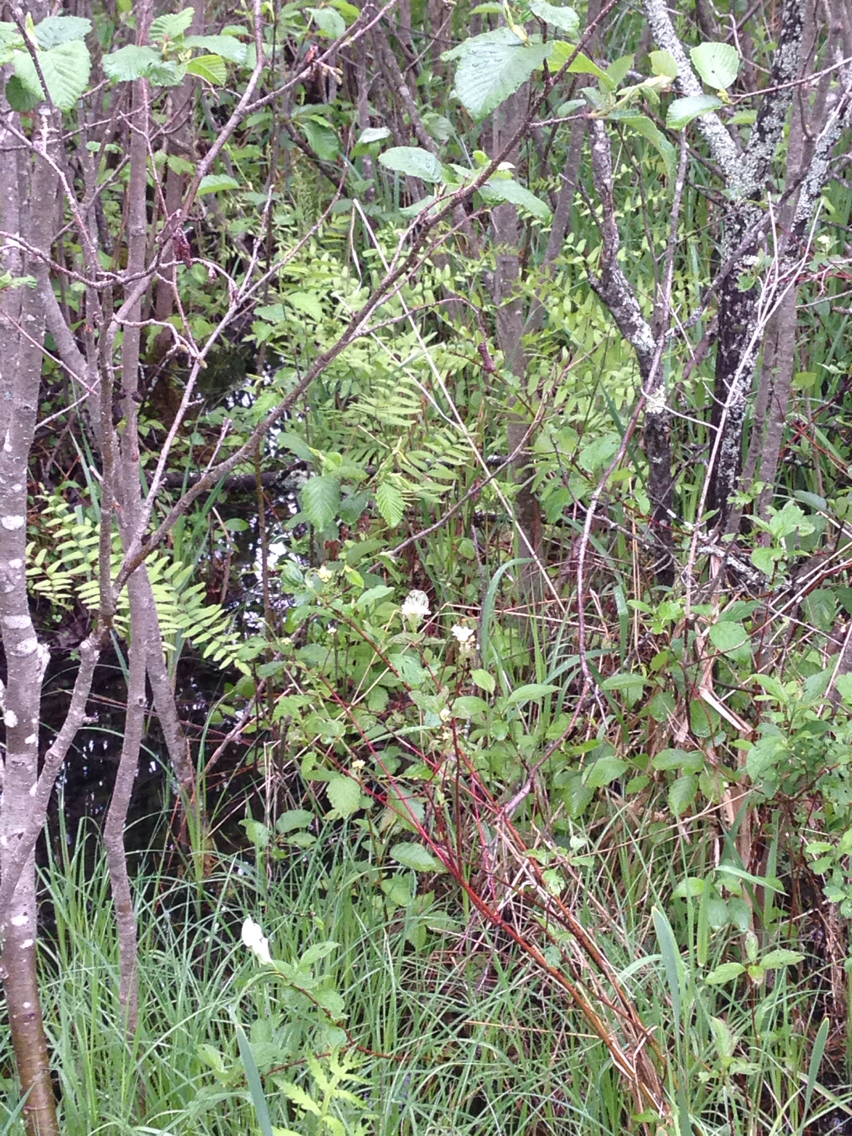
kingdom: Plantae
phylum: Tracheophyta
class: Polypodiopsida
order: Osmundales
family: Osmundaceae
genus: Osmunda
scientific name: Osmunda spectabilis
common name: American royal fern
